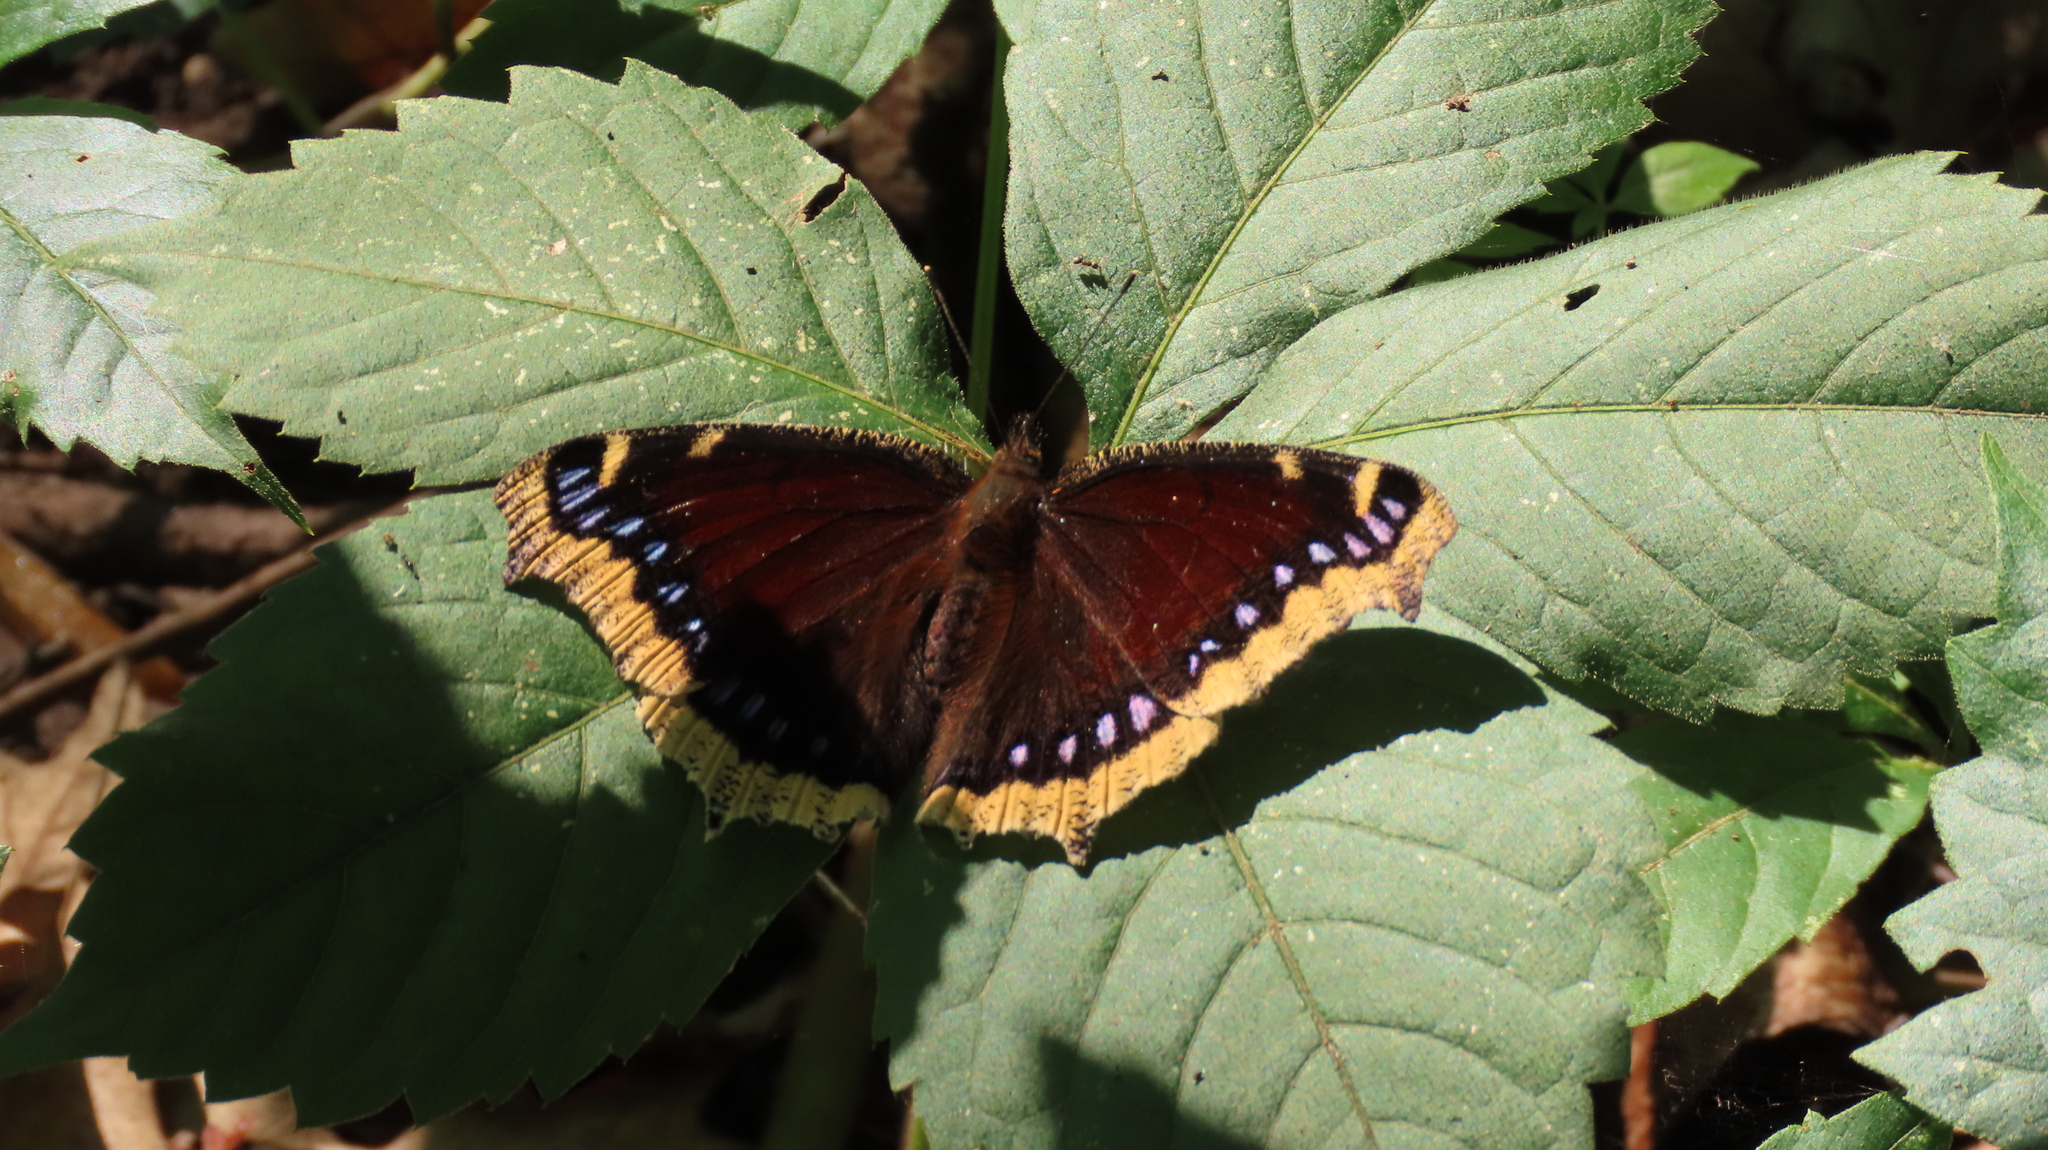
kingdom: Animalia
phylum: Arthropoda
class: Insecta
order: Lepidoptera
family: Nymphalidae
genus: Nymphalis
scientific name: Nymphalis antiopa
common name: Camberwell beauty
